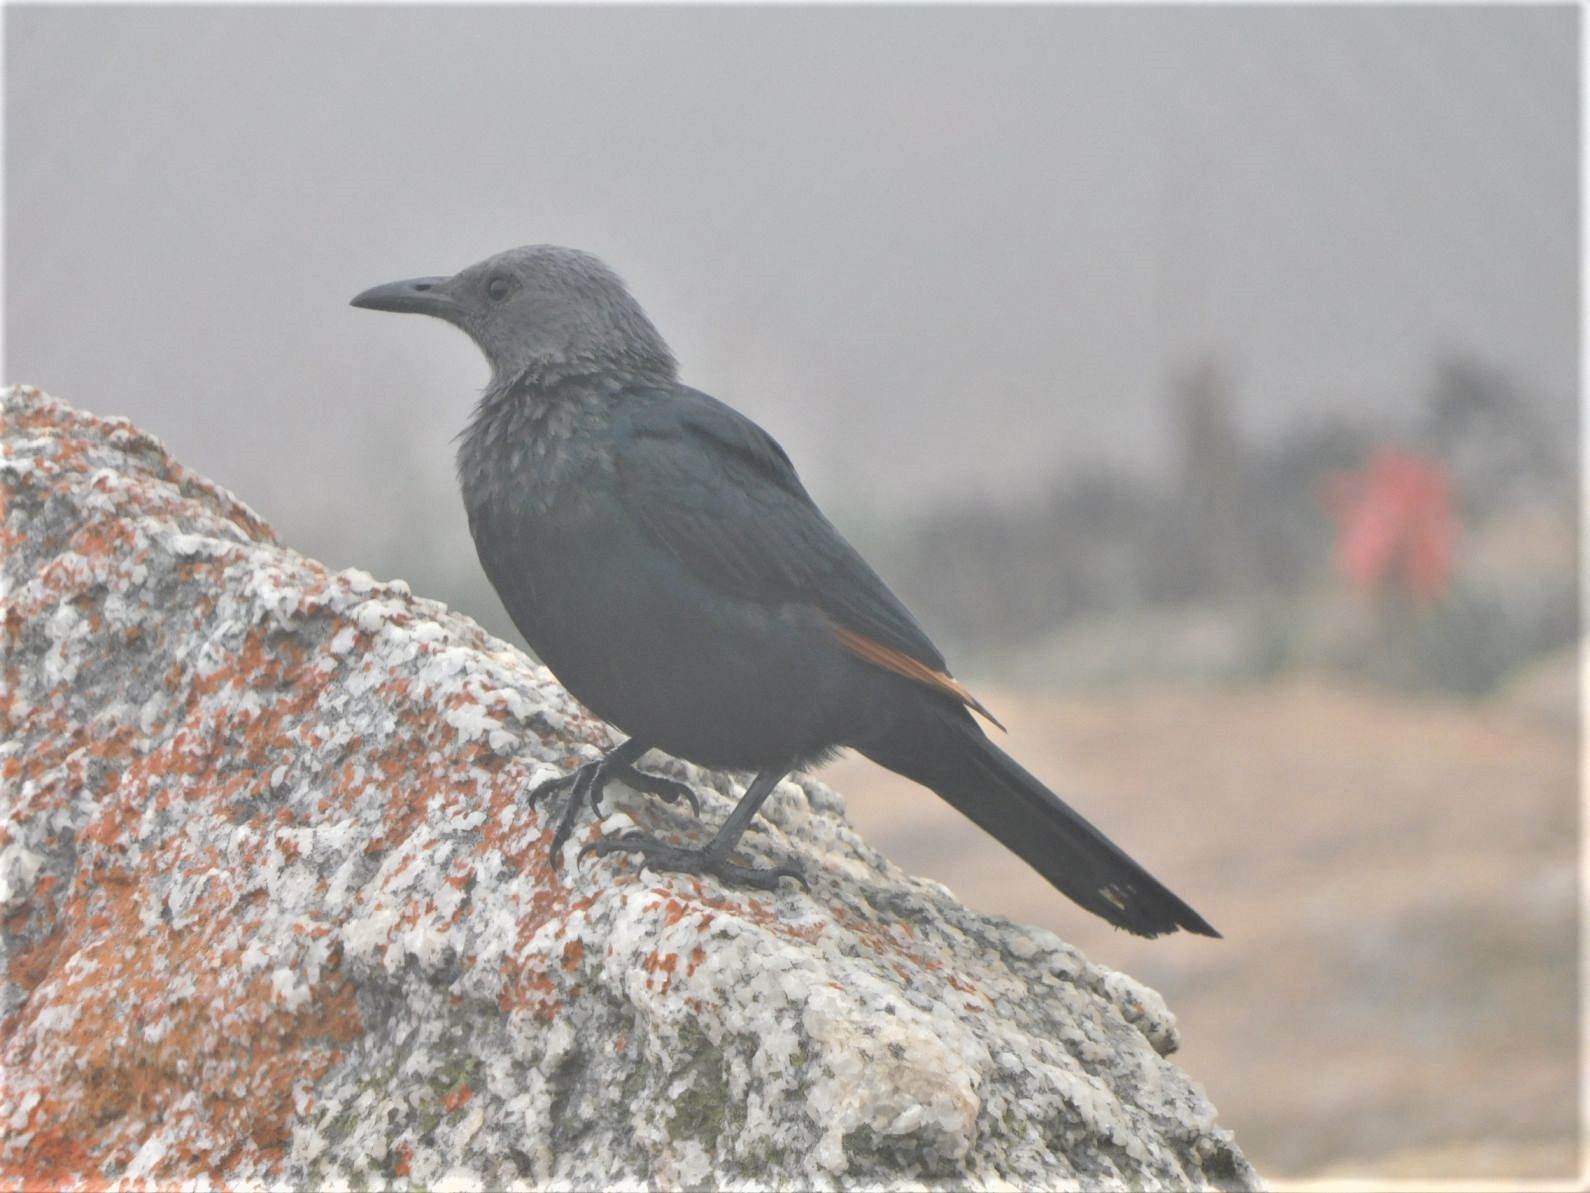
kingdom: Animalia
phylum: Chordata
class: Aves
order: Passeriformes
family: Sturnidae
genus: Onychognathus
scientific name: Onychognathus morio
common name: Red-winged starling
